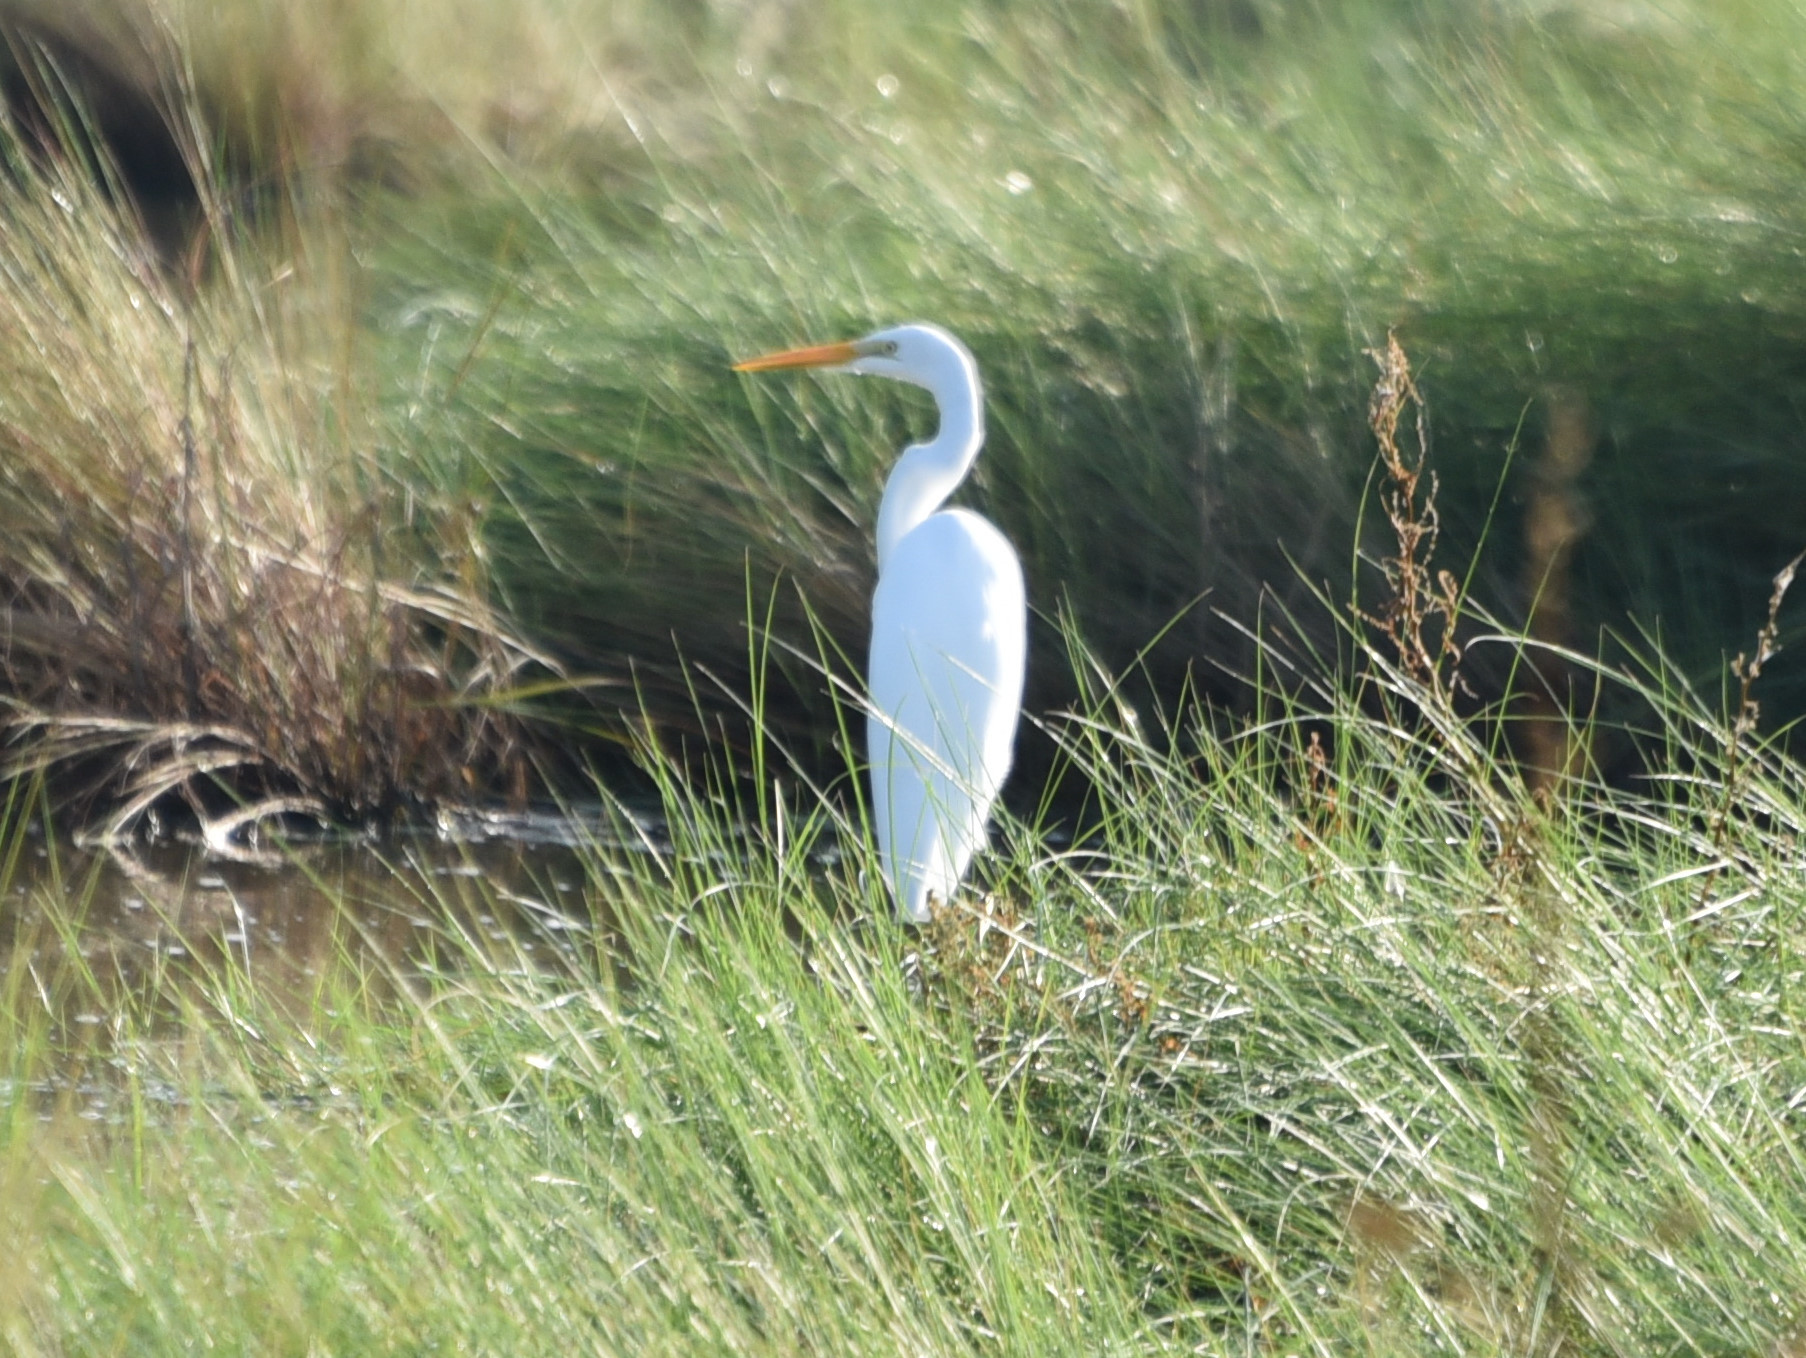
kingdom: Animalia
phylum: Chordata
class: Aves
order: Pelecaniformes
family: Ardeidae
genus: Ardea
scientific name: Ardea alba
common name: Great egret
